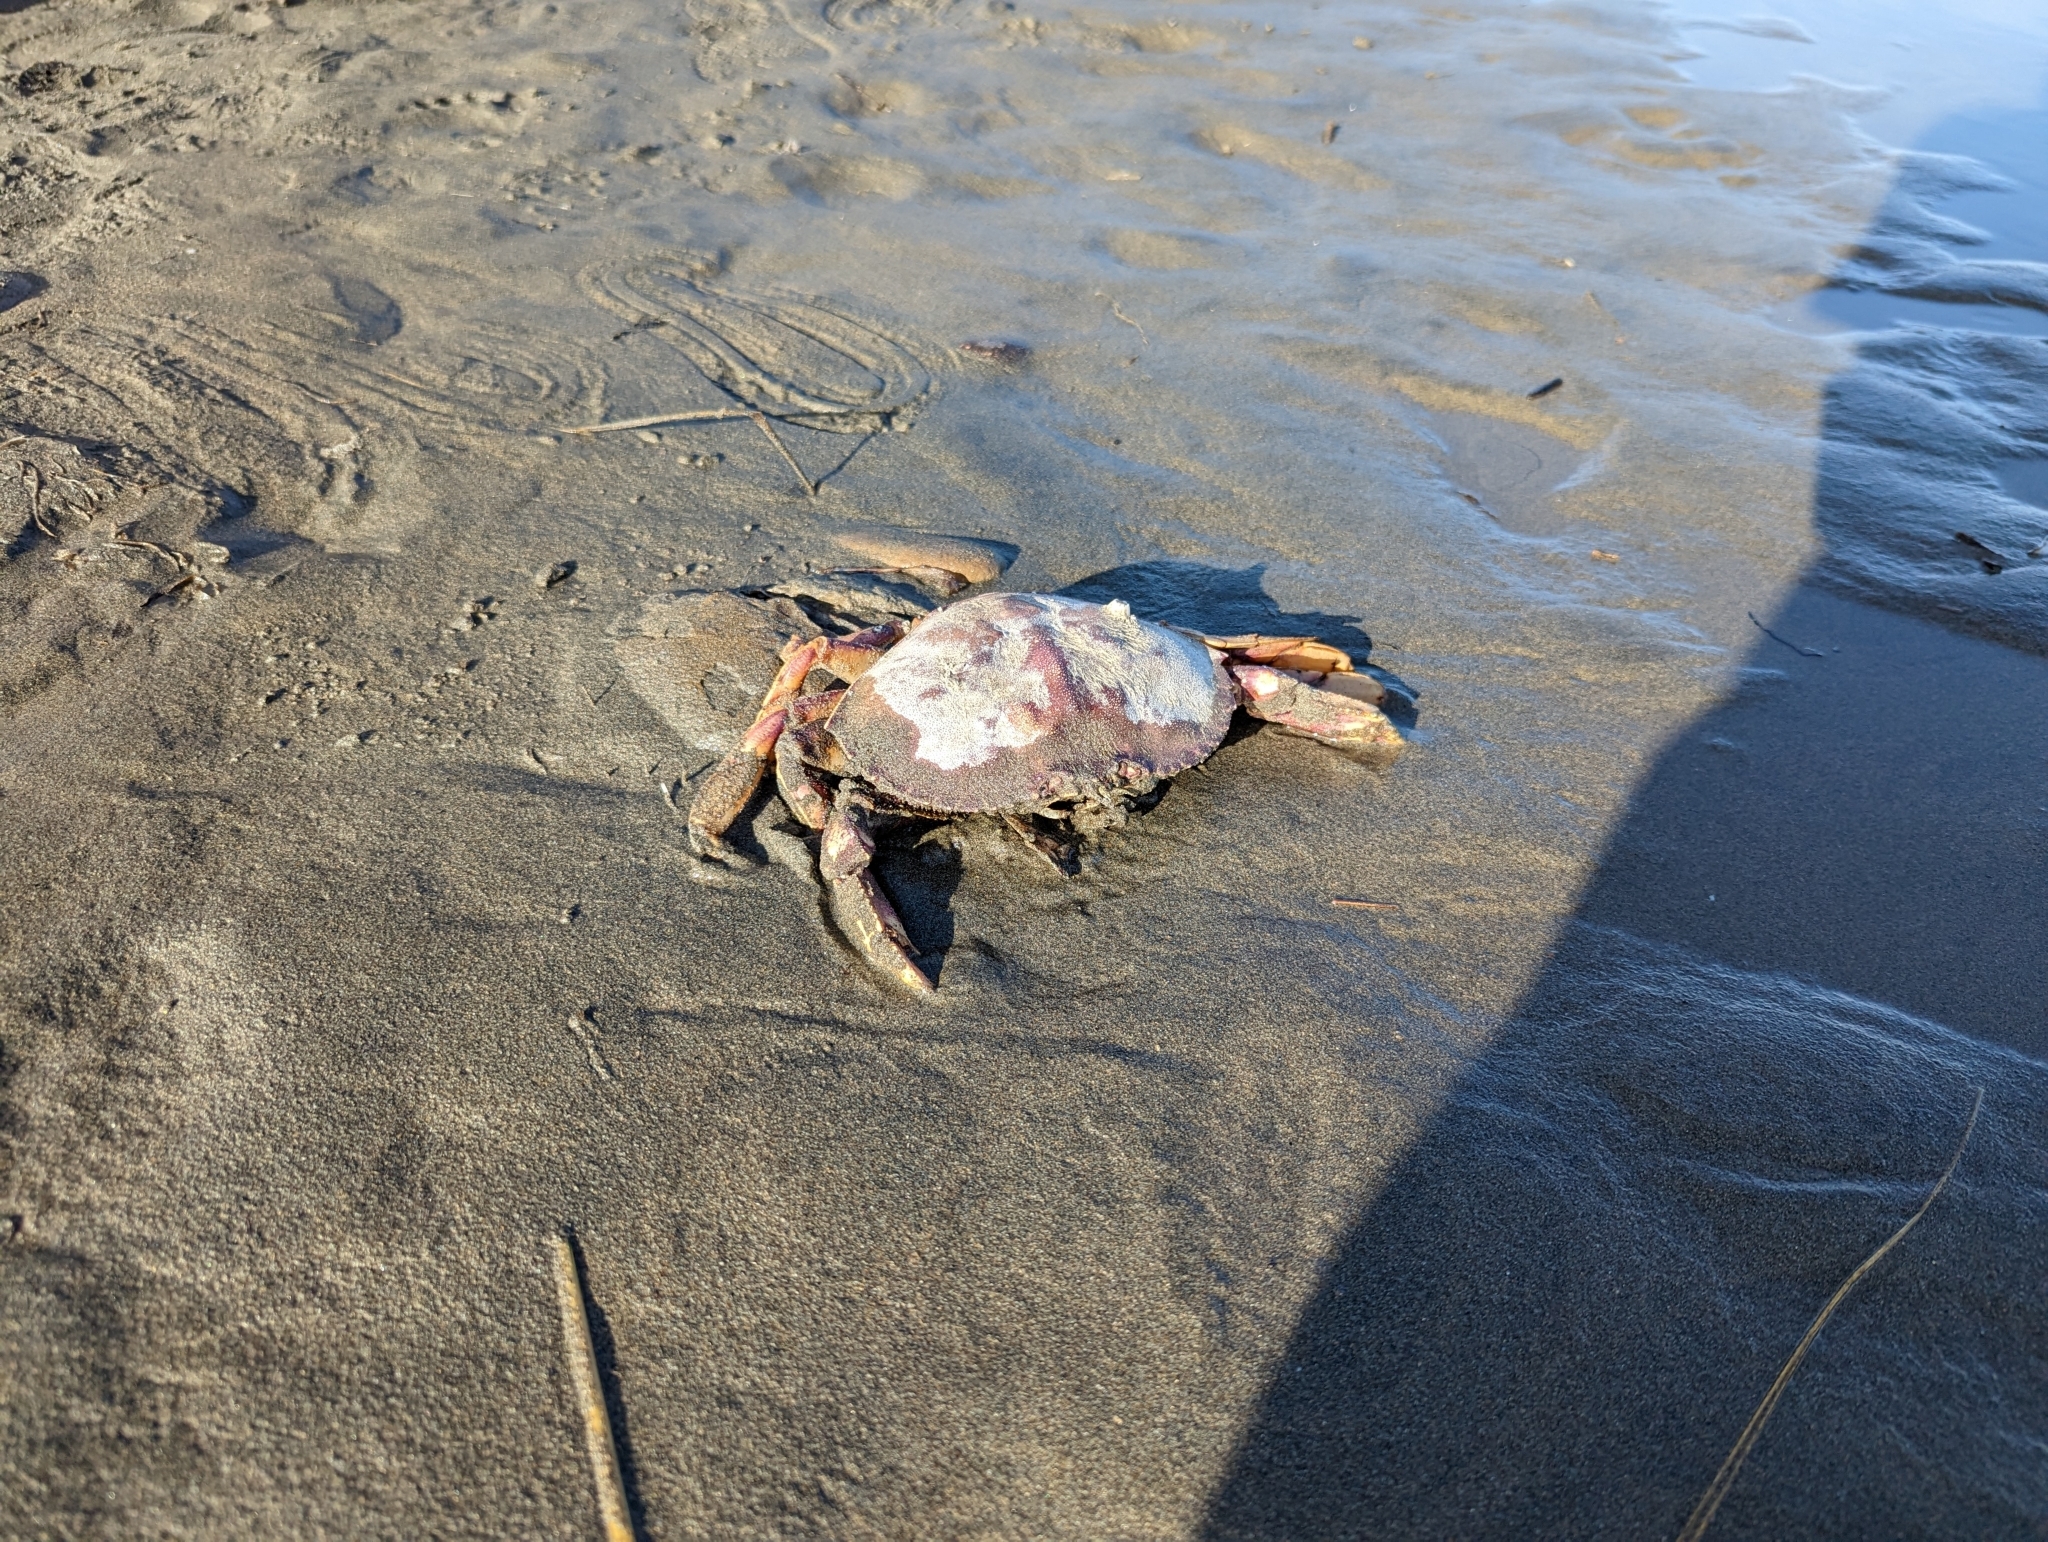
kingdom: Animalia
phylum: Arthropoda
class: Malacostraca
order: Decapoda
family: Cancridae
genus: Metacarcinus
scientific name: Metacarcinus magister
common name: Californian crab
